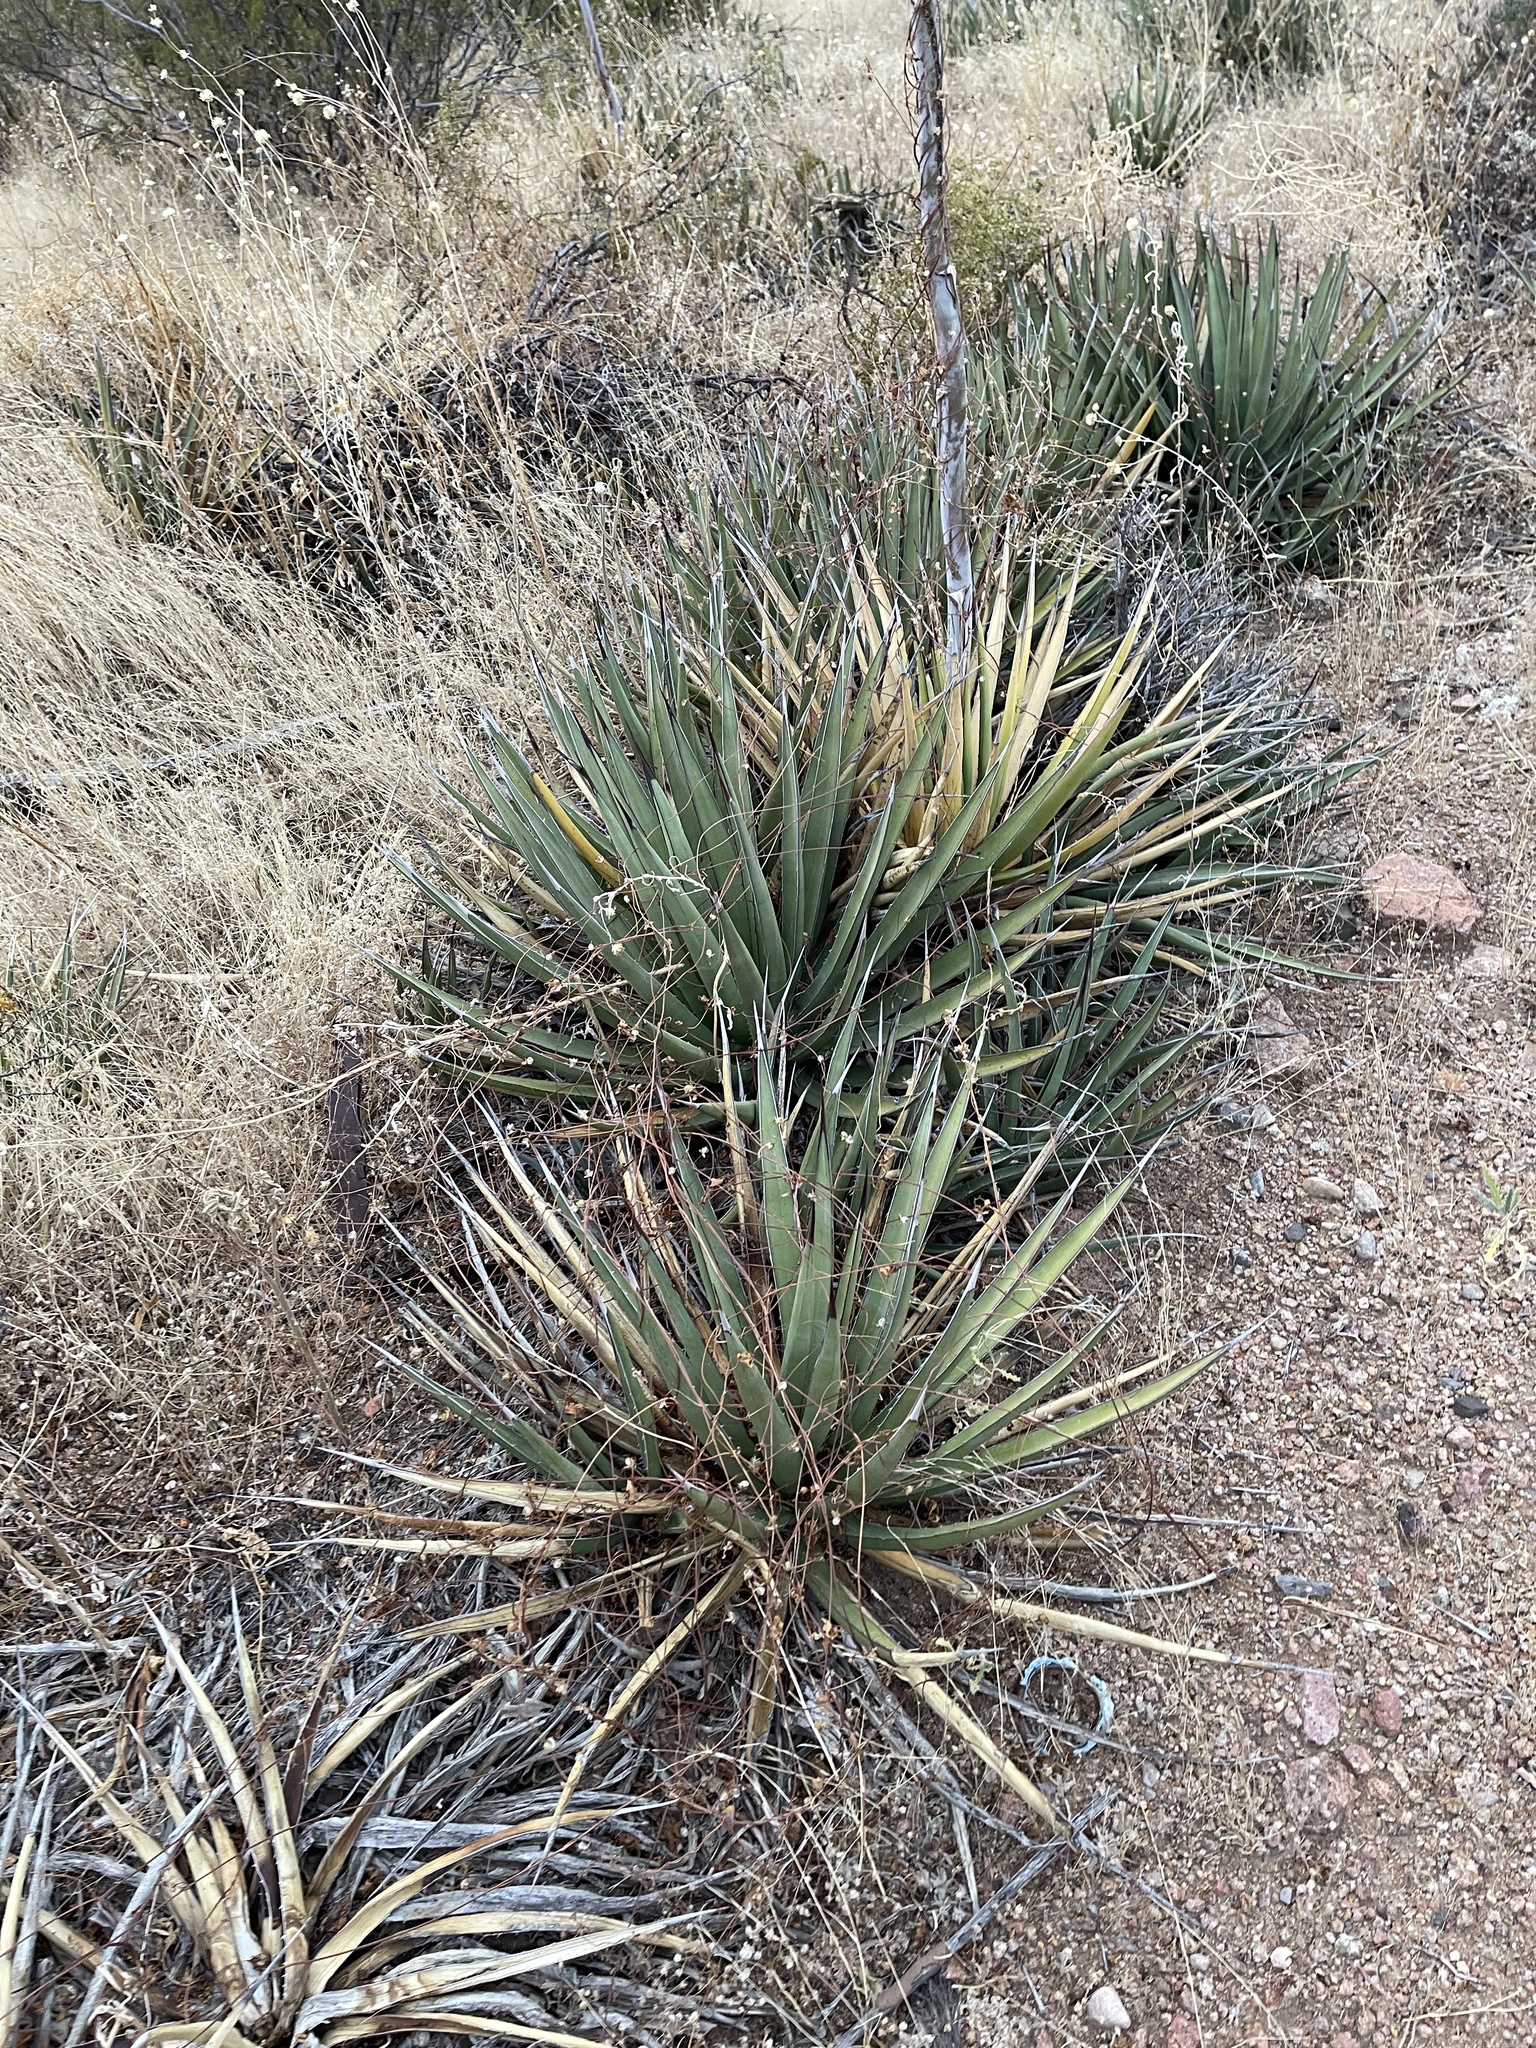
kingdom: Plantae
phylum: Tracheophyta
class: Liliopsida
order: Asparagales
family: Asparagaceae
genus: Agave
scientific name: Agave lechuguilla
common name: Lecheguilla agave
